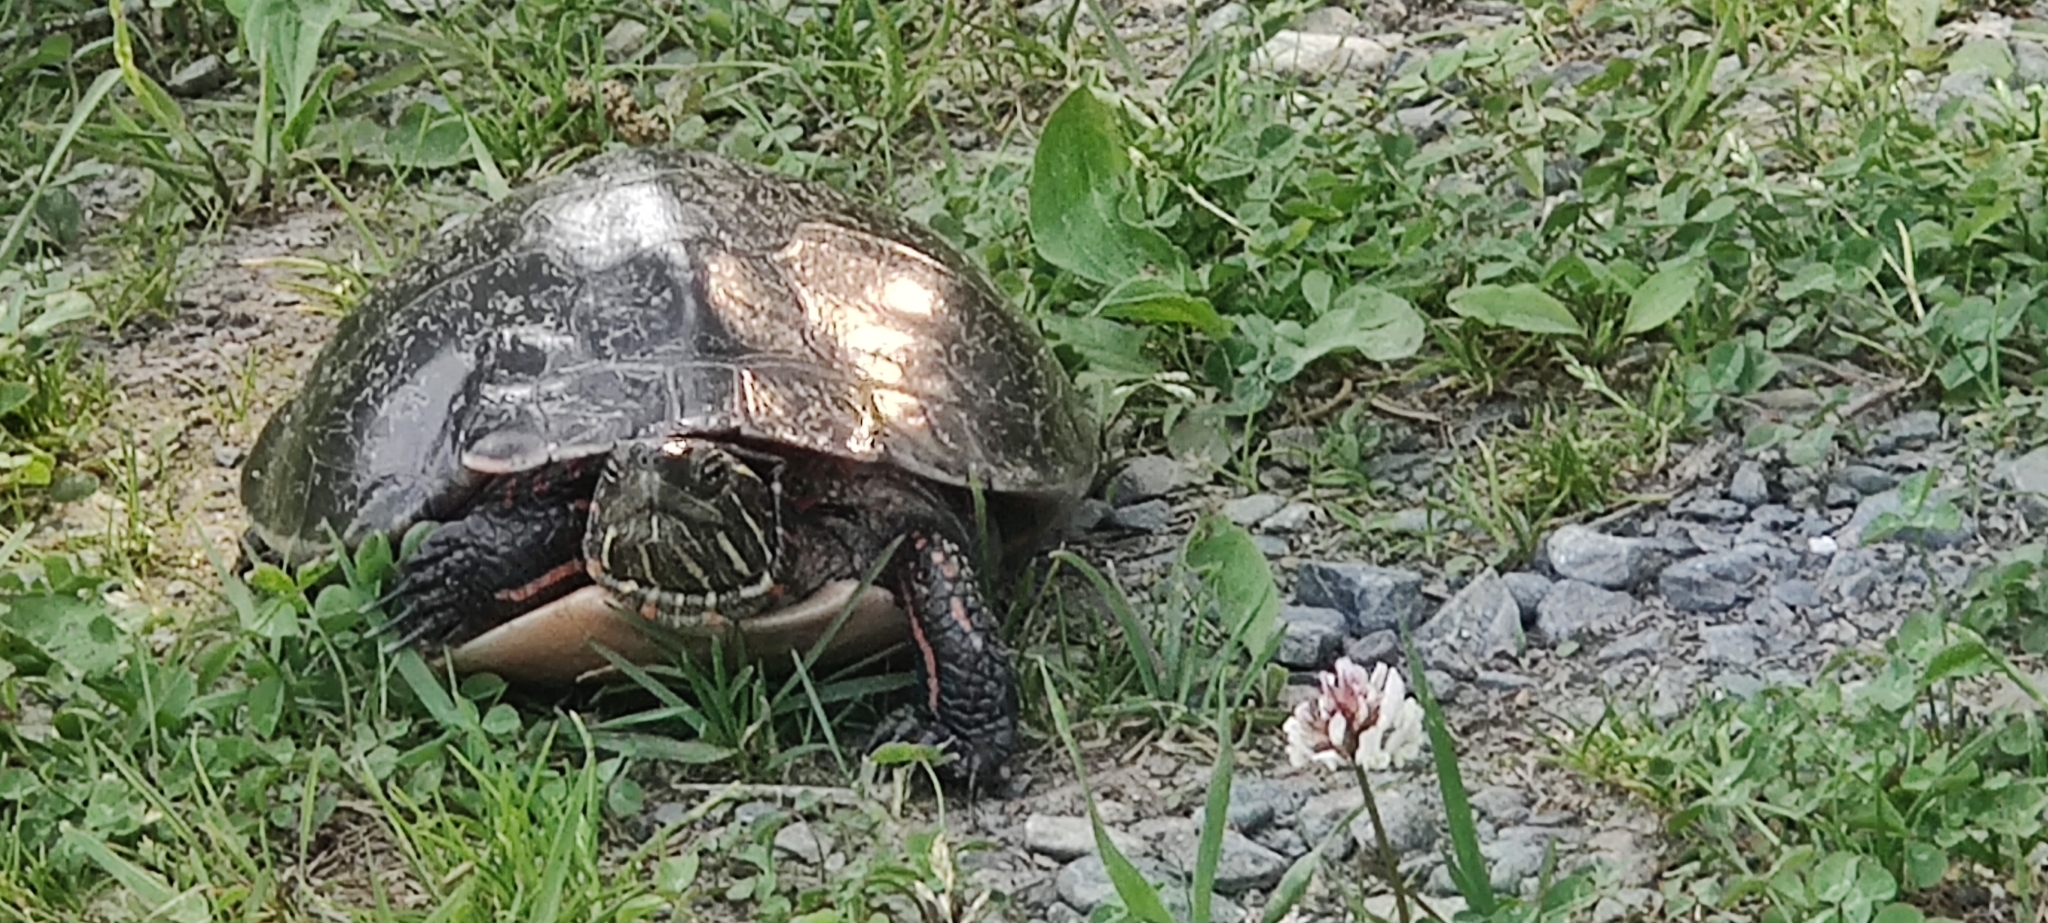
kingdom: Animalia
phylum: Chordata
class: Testudines
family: Emydidae
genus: Chrysemys
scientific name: Chrysemys picta
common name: Painted turtle
